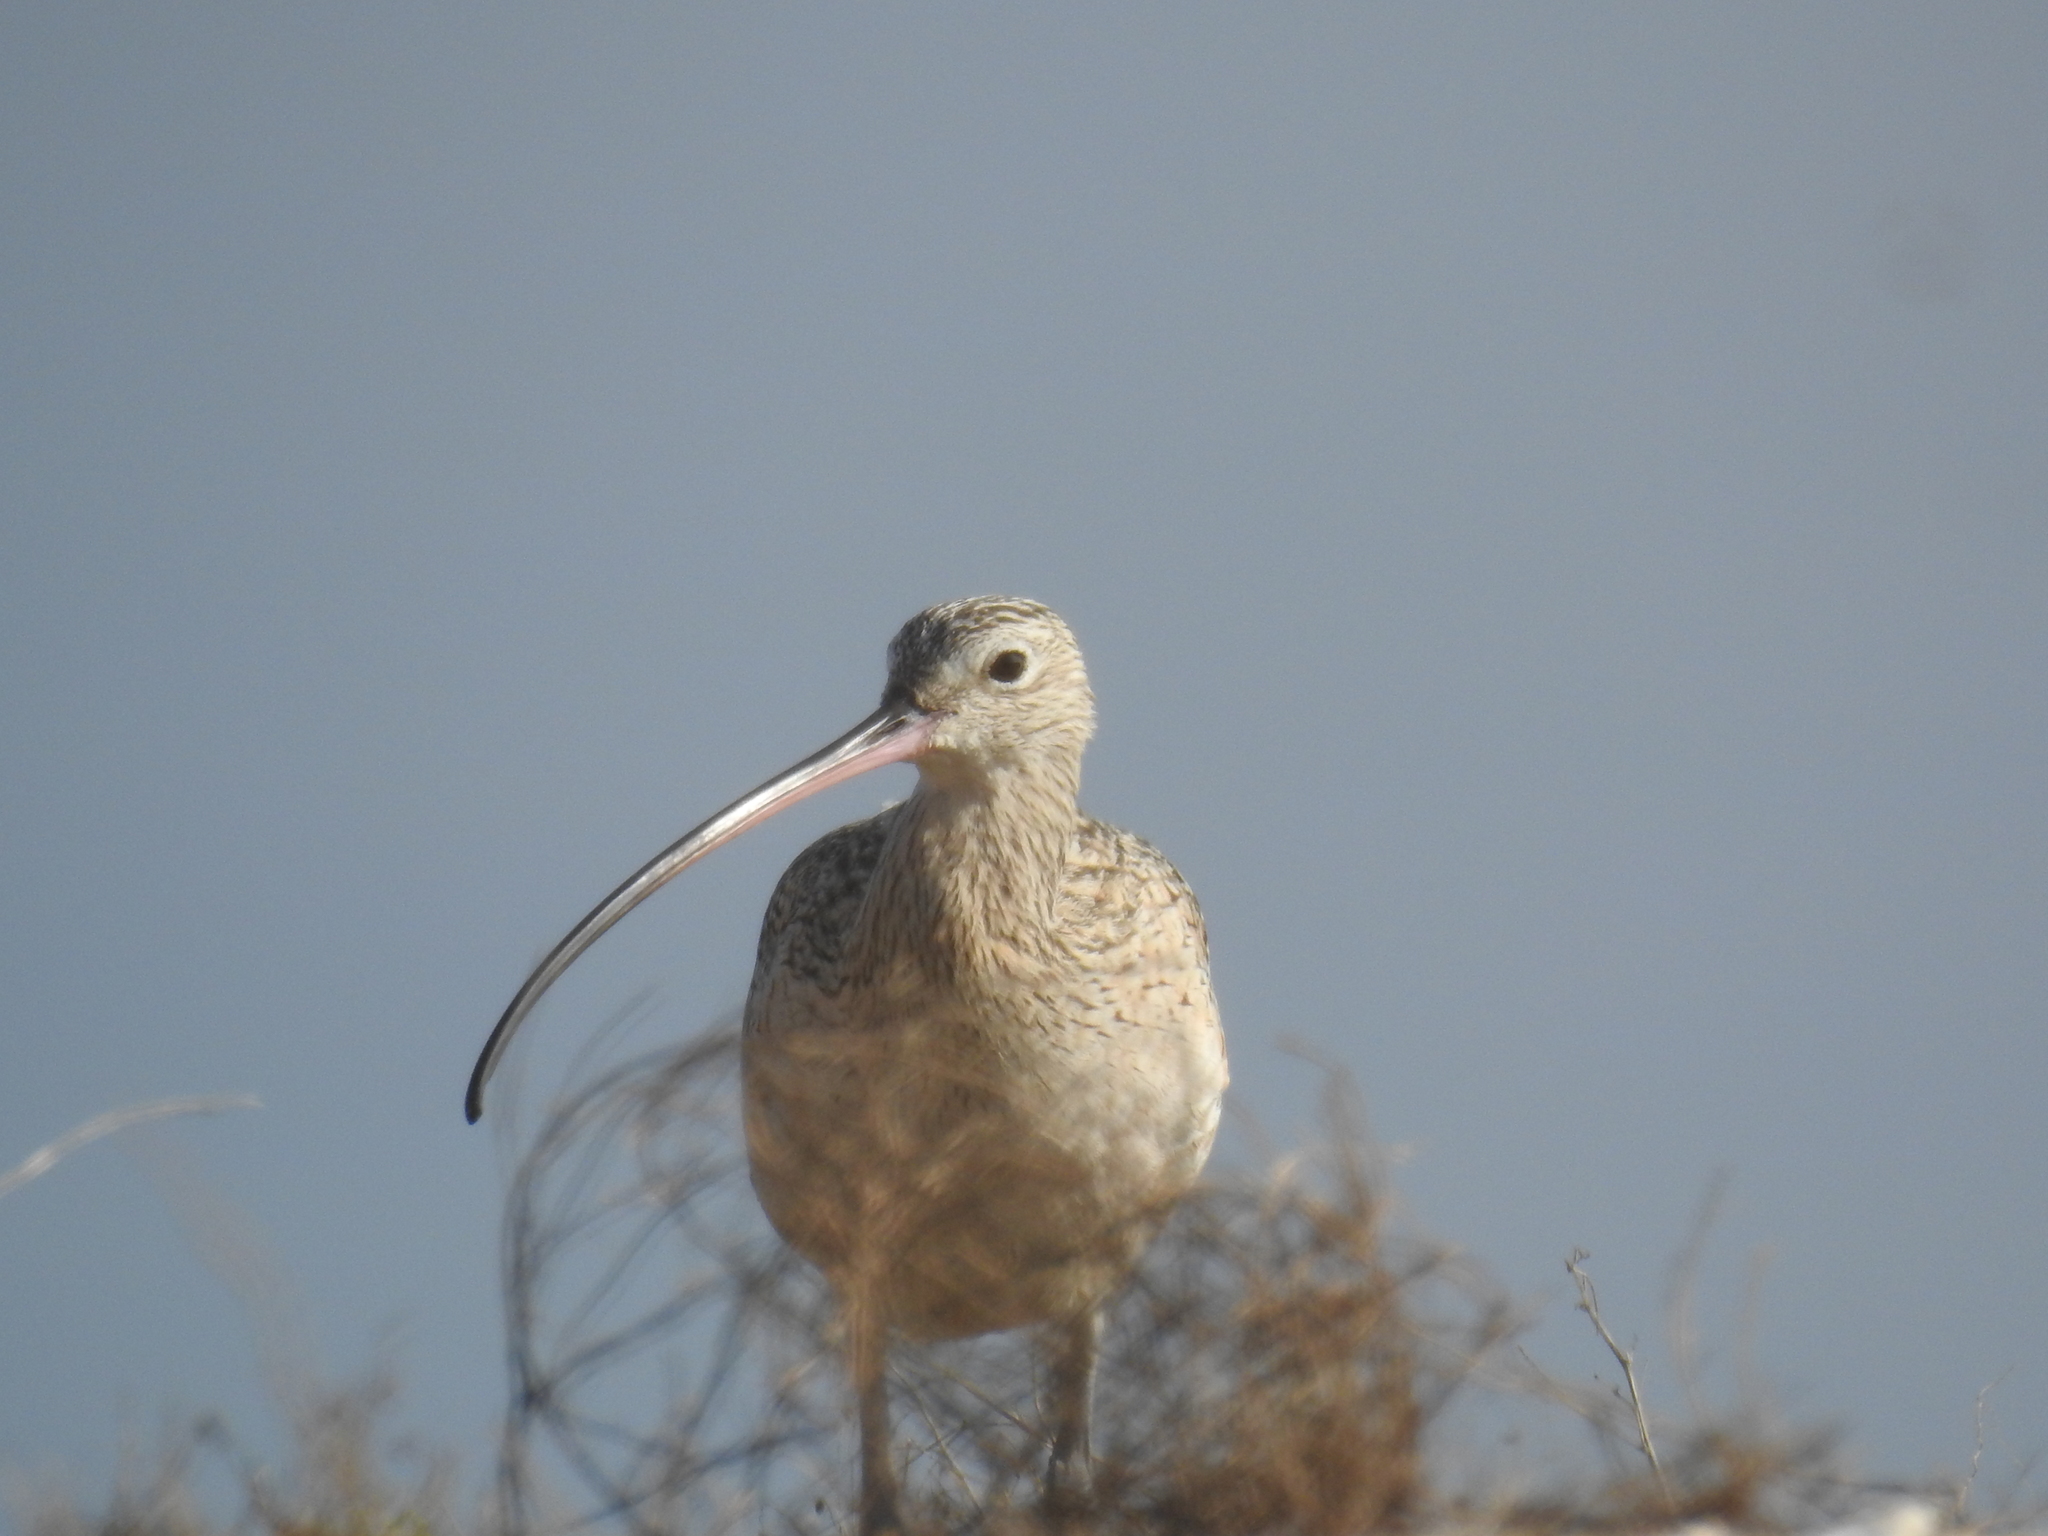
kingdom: Animalia
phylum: Chordata
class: Aves
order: Charadriiformes
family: Scolopacidae
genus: Numenius
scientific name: Numenius americanus
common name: Long-billed curlew
